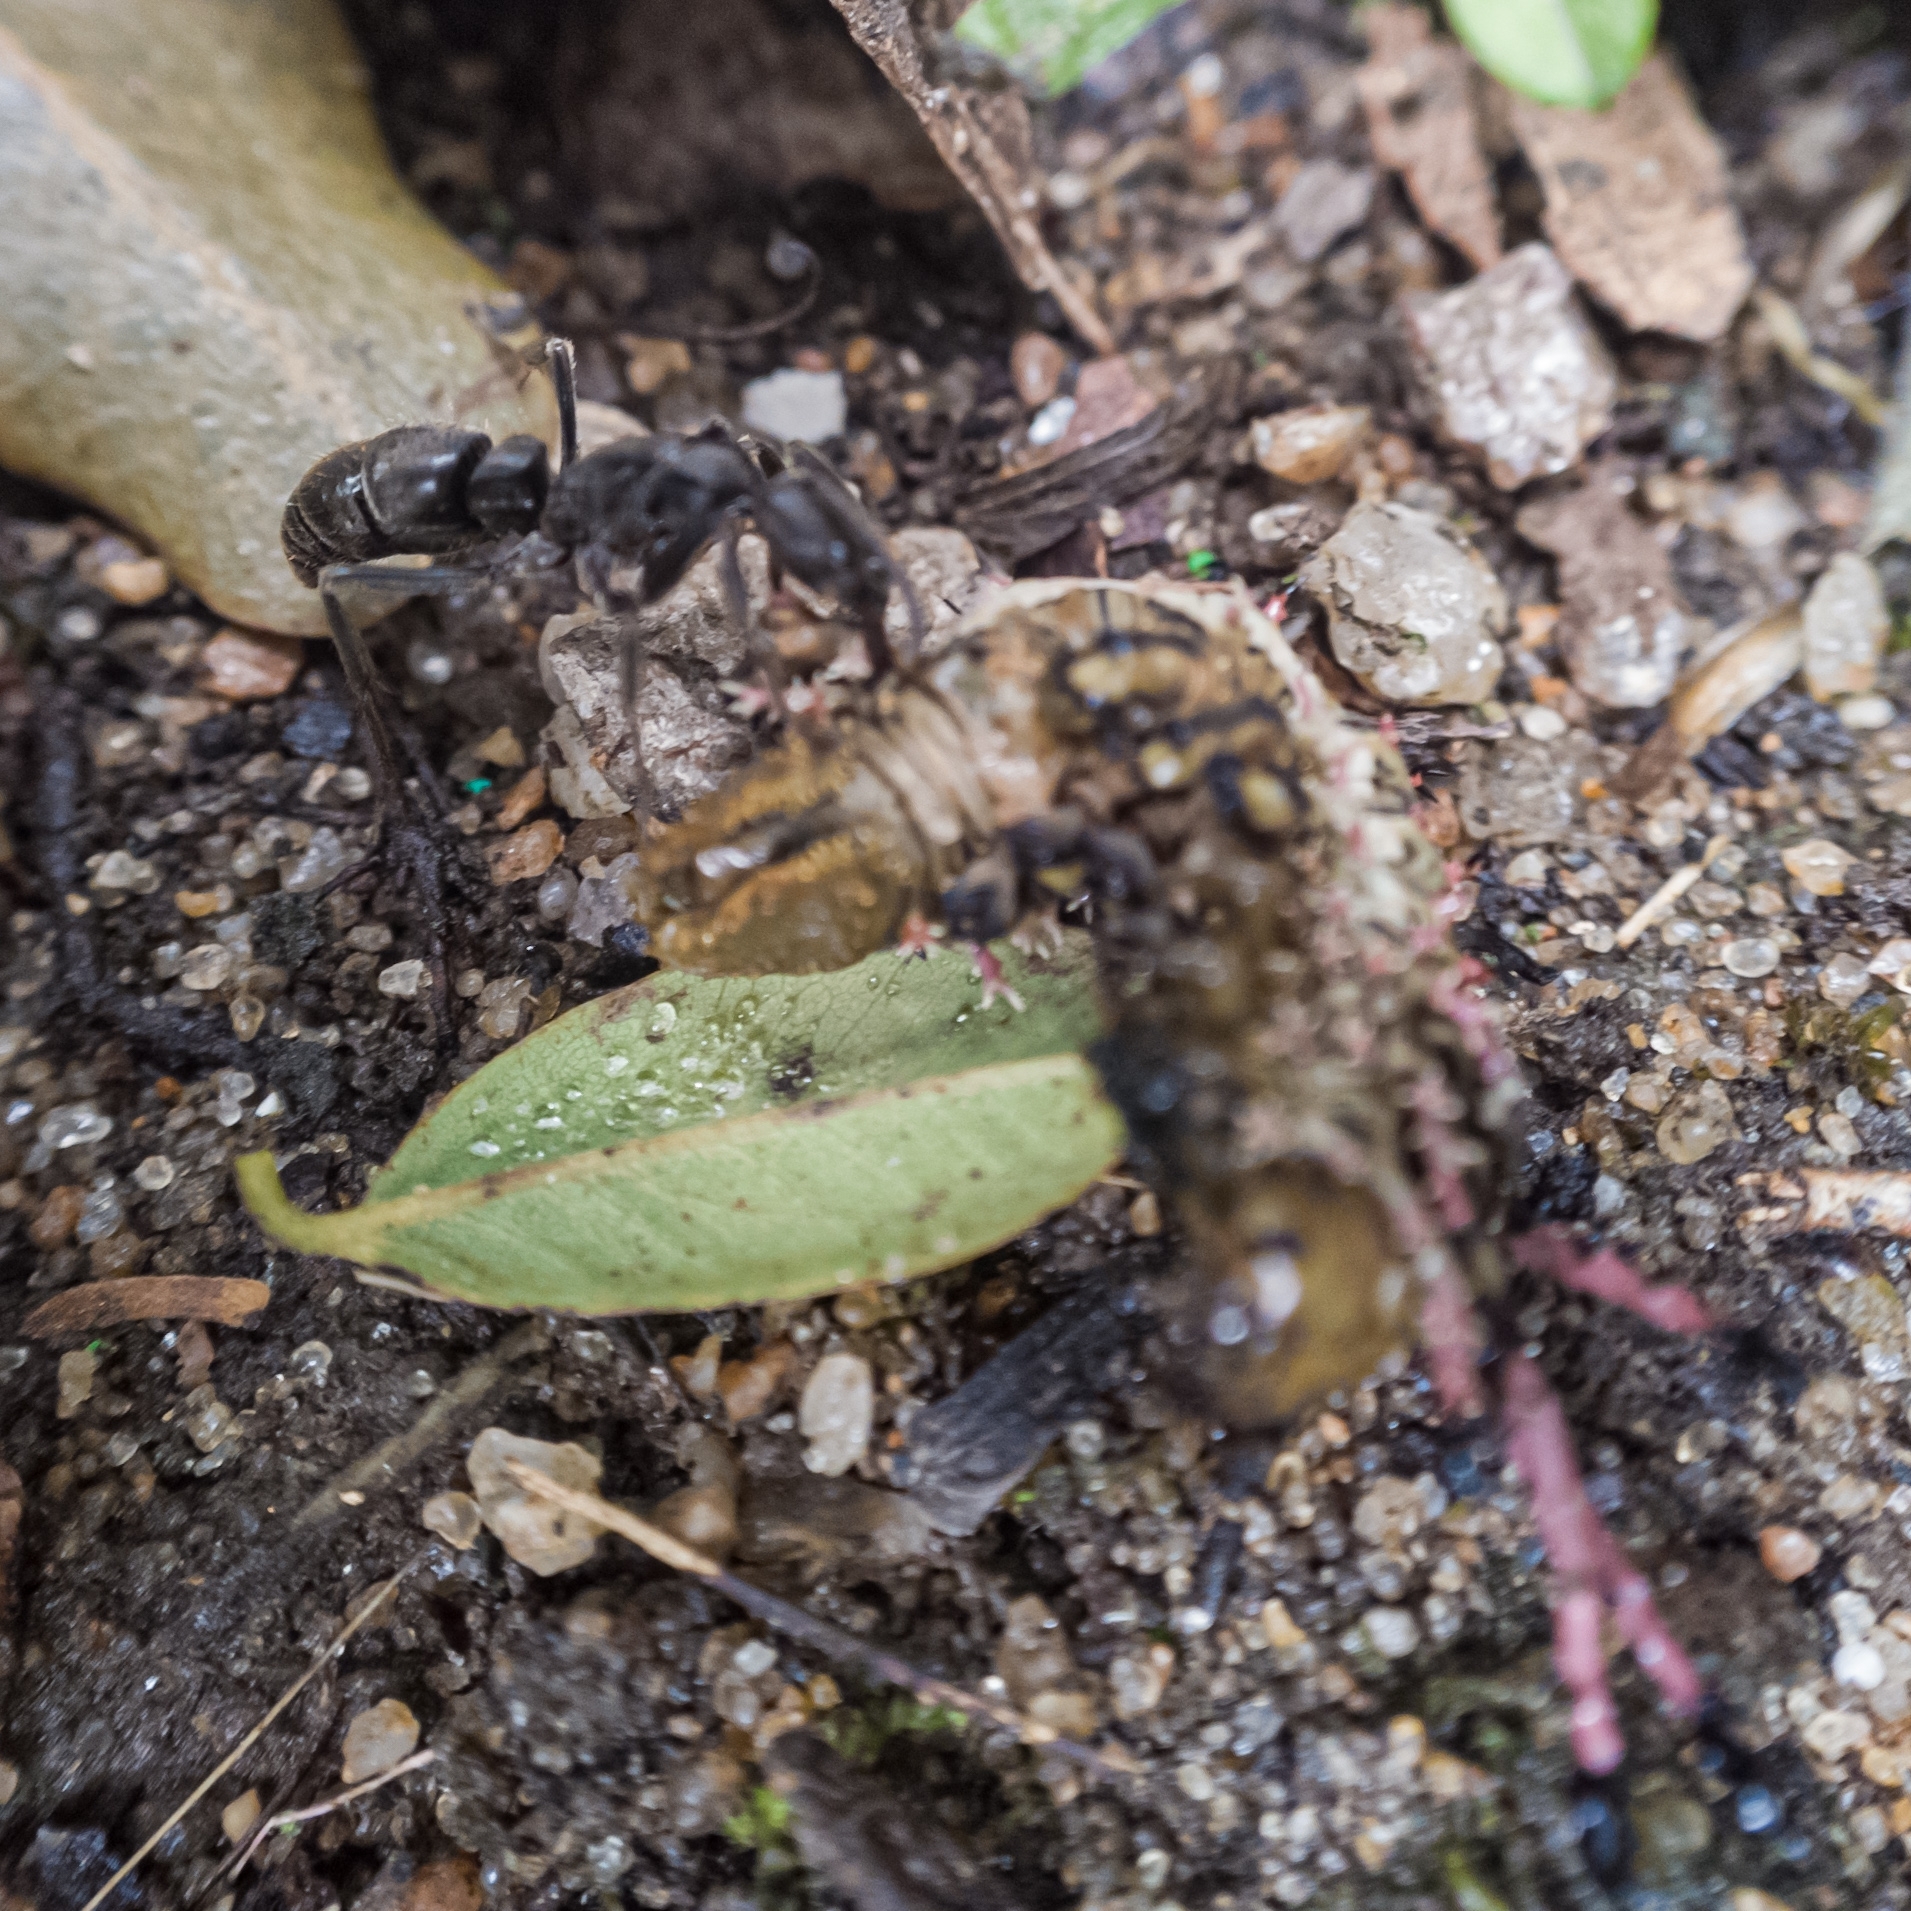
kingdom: Animalia
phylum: Arthropoda
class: Insecta
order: Lepidoptera
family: Saturniidae
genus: Citheronia
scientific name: Citheronia brissotii
